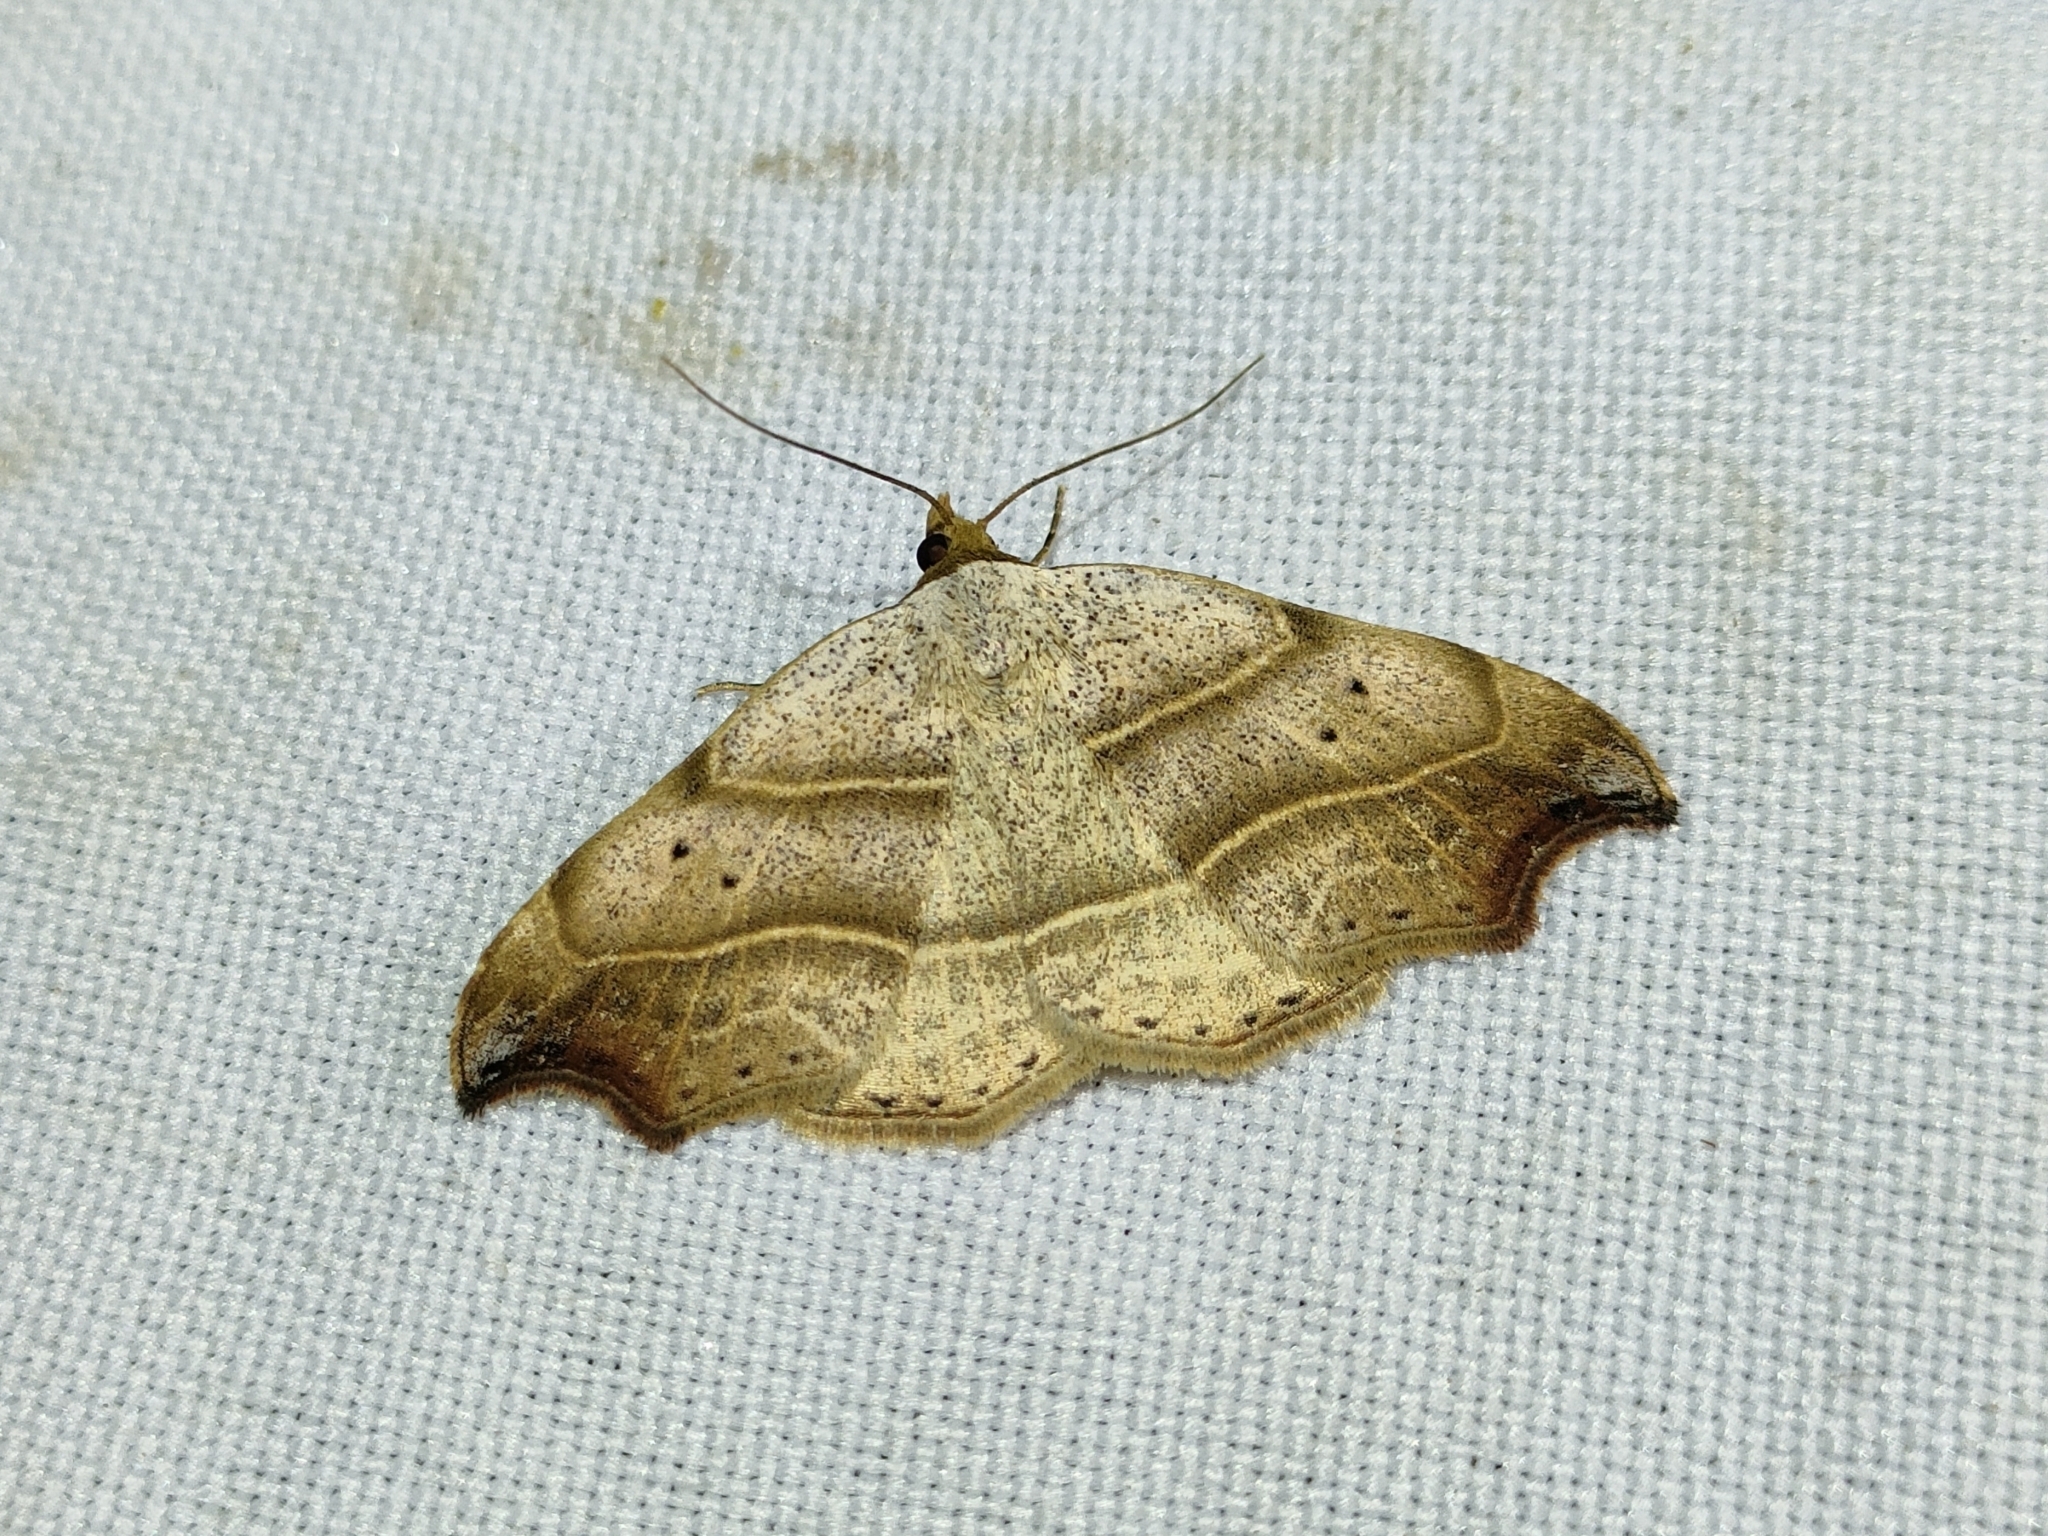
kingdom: Animalia
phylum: Arthropoda
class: Insecta
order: Lepidoptera
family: Erebidae
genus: Laspeyria
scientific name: Laspeyria flexula
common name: Beautiful hook-tip
